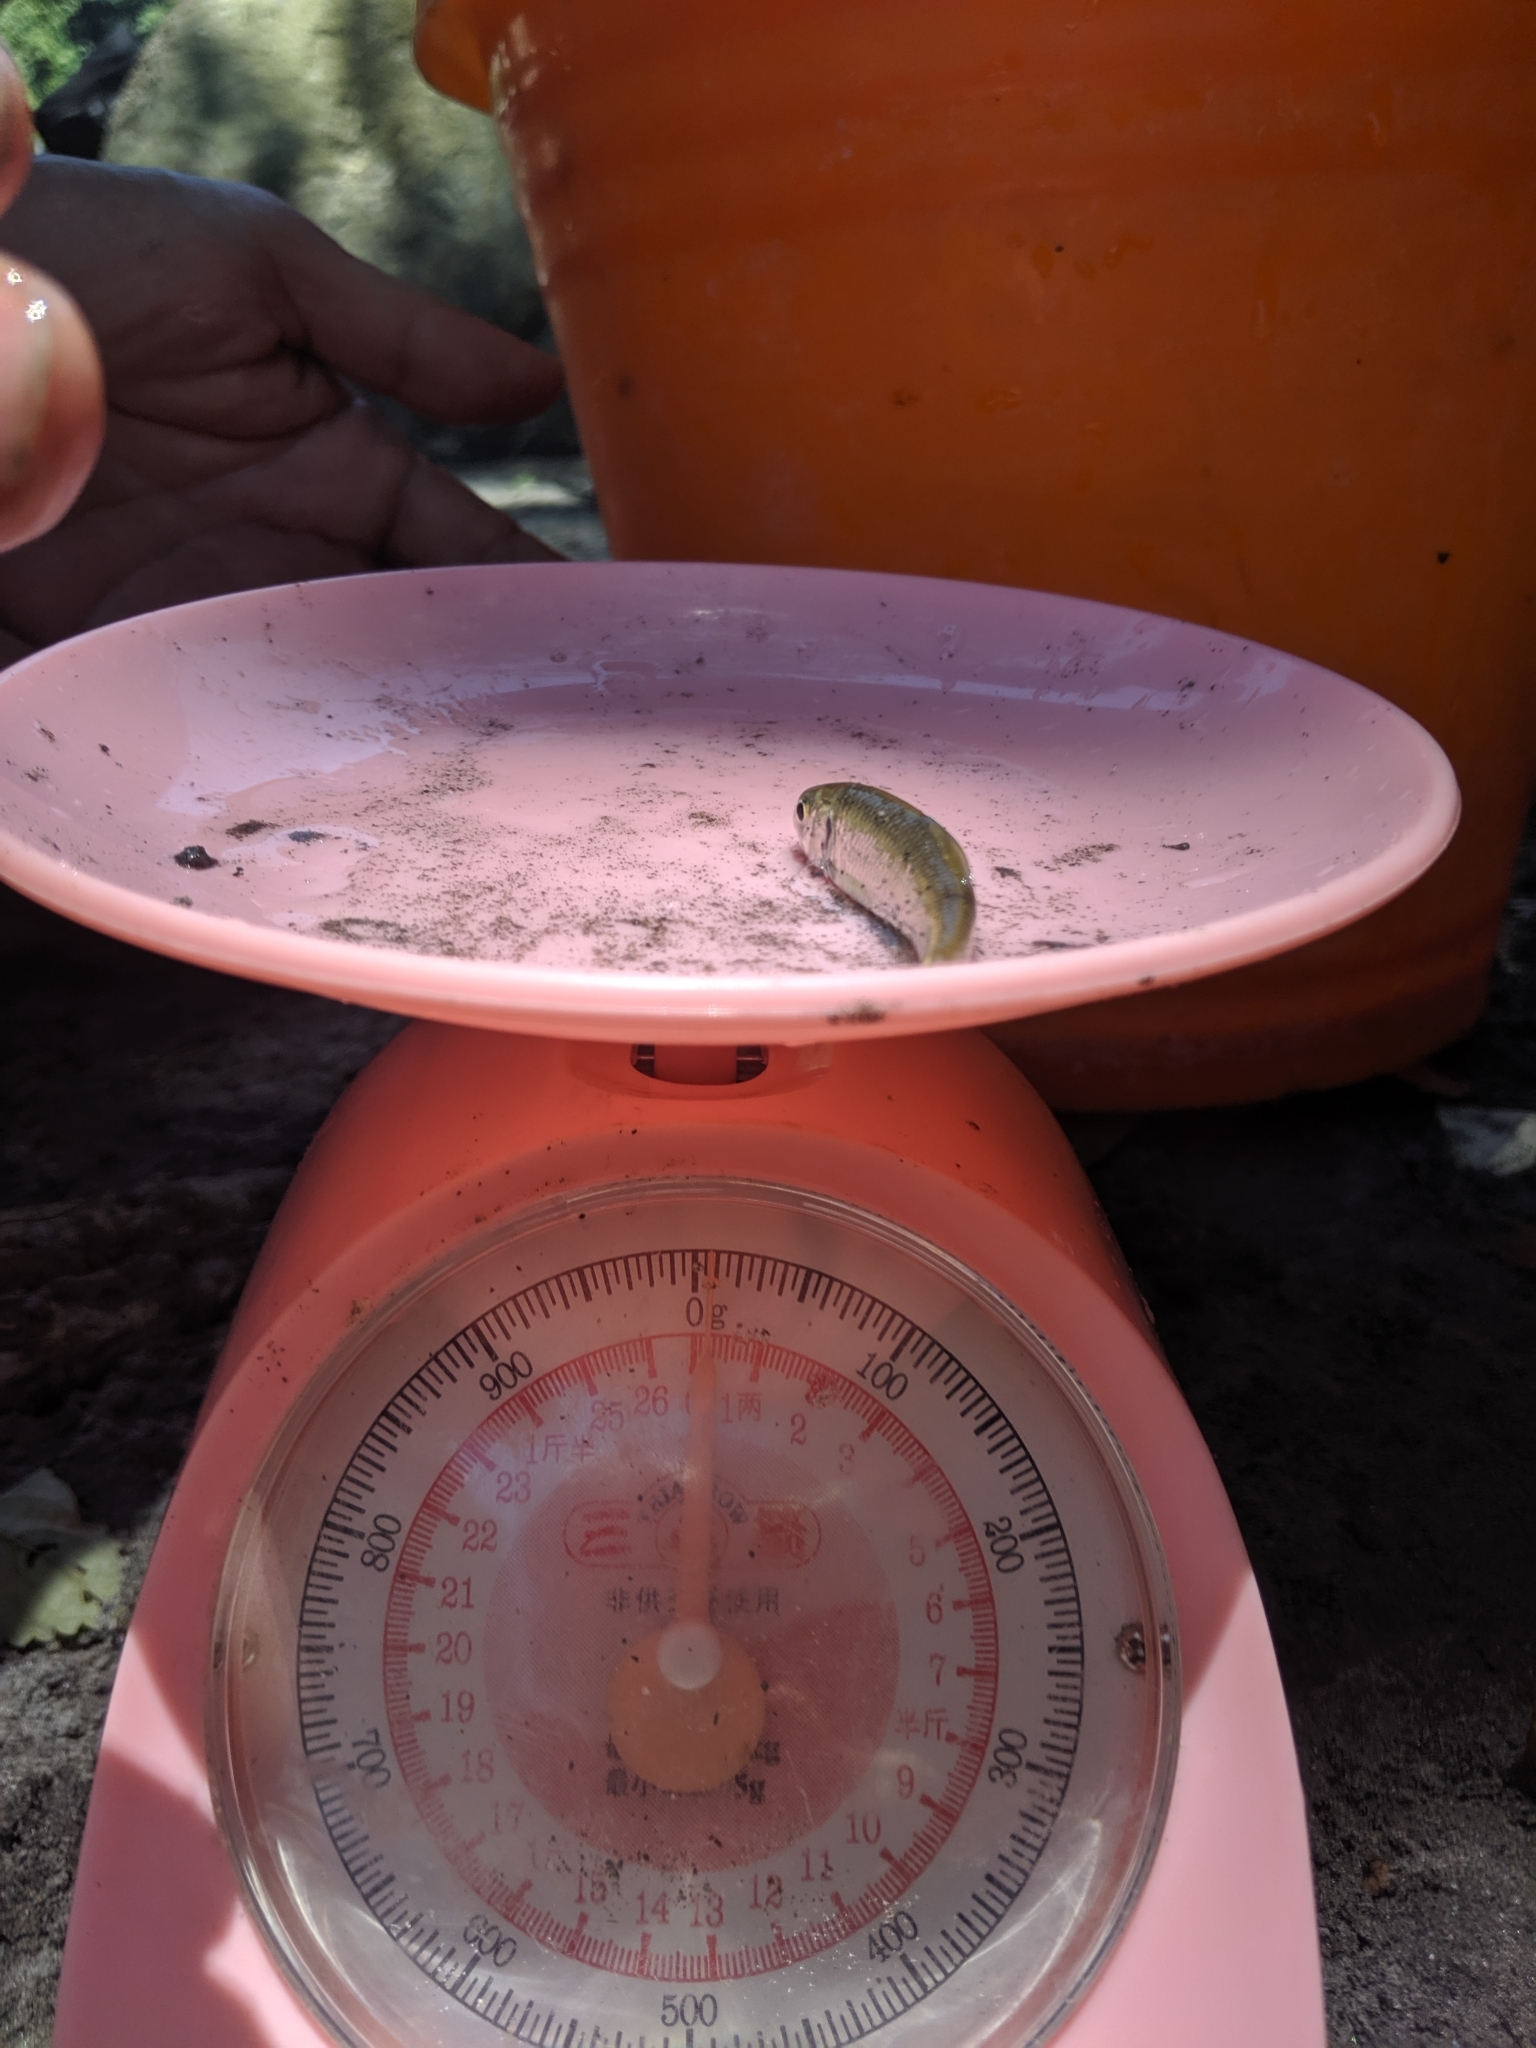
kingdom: Animalia
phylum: Chordata
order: Cypriniformes
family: Cyprinidae
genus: Onychostoma
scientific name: Onychostoma barbatulum
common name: Taiwan shoveljaw carp
